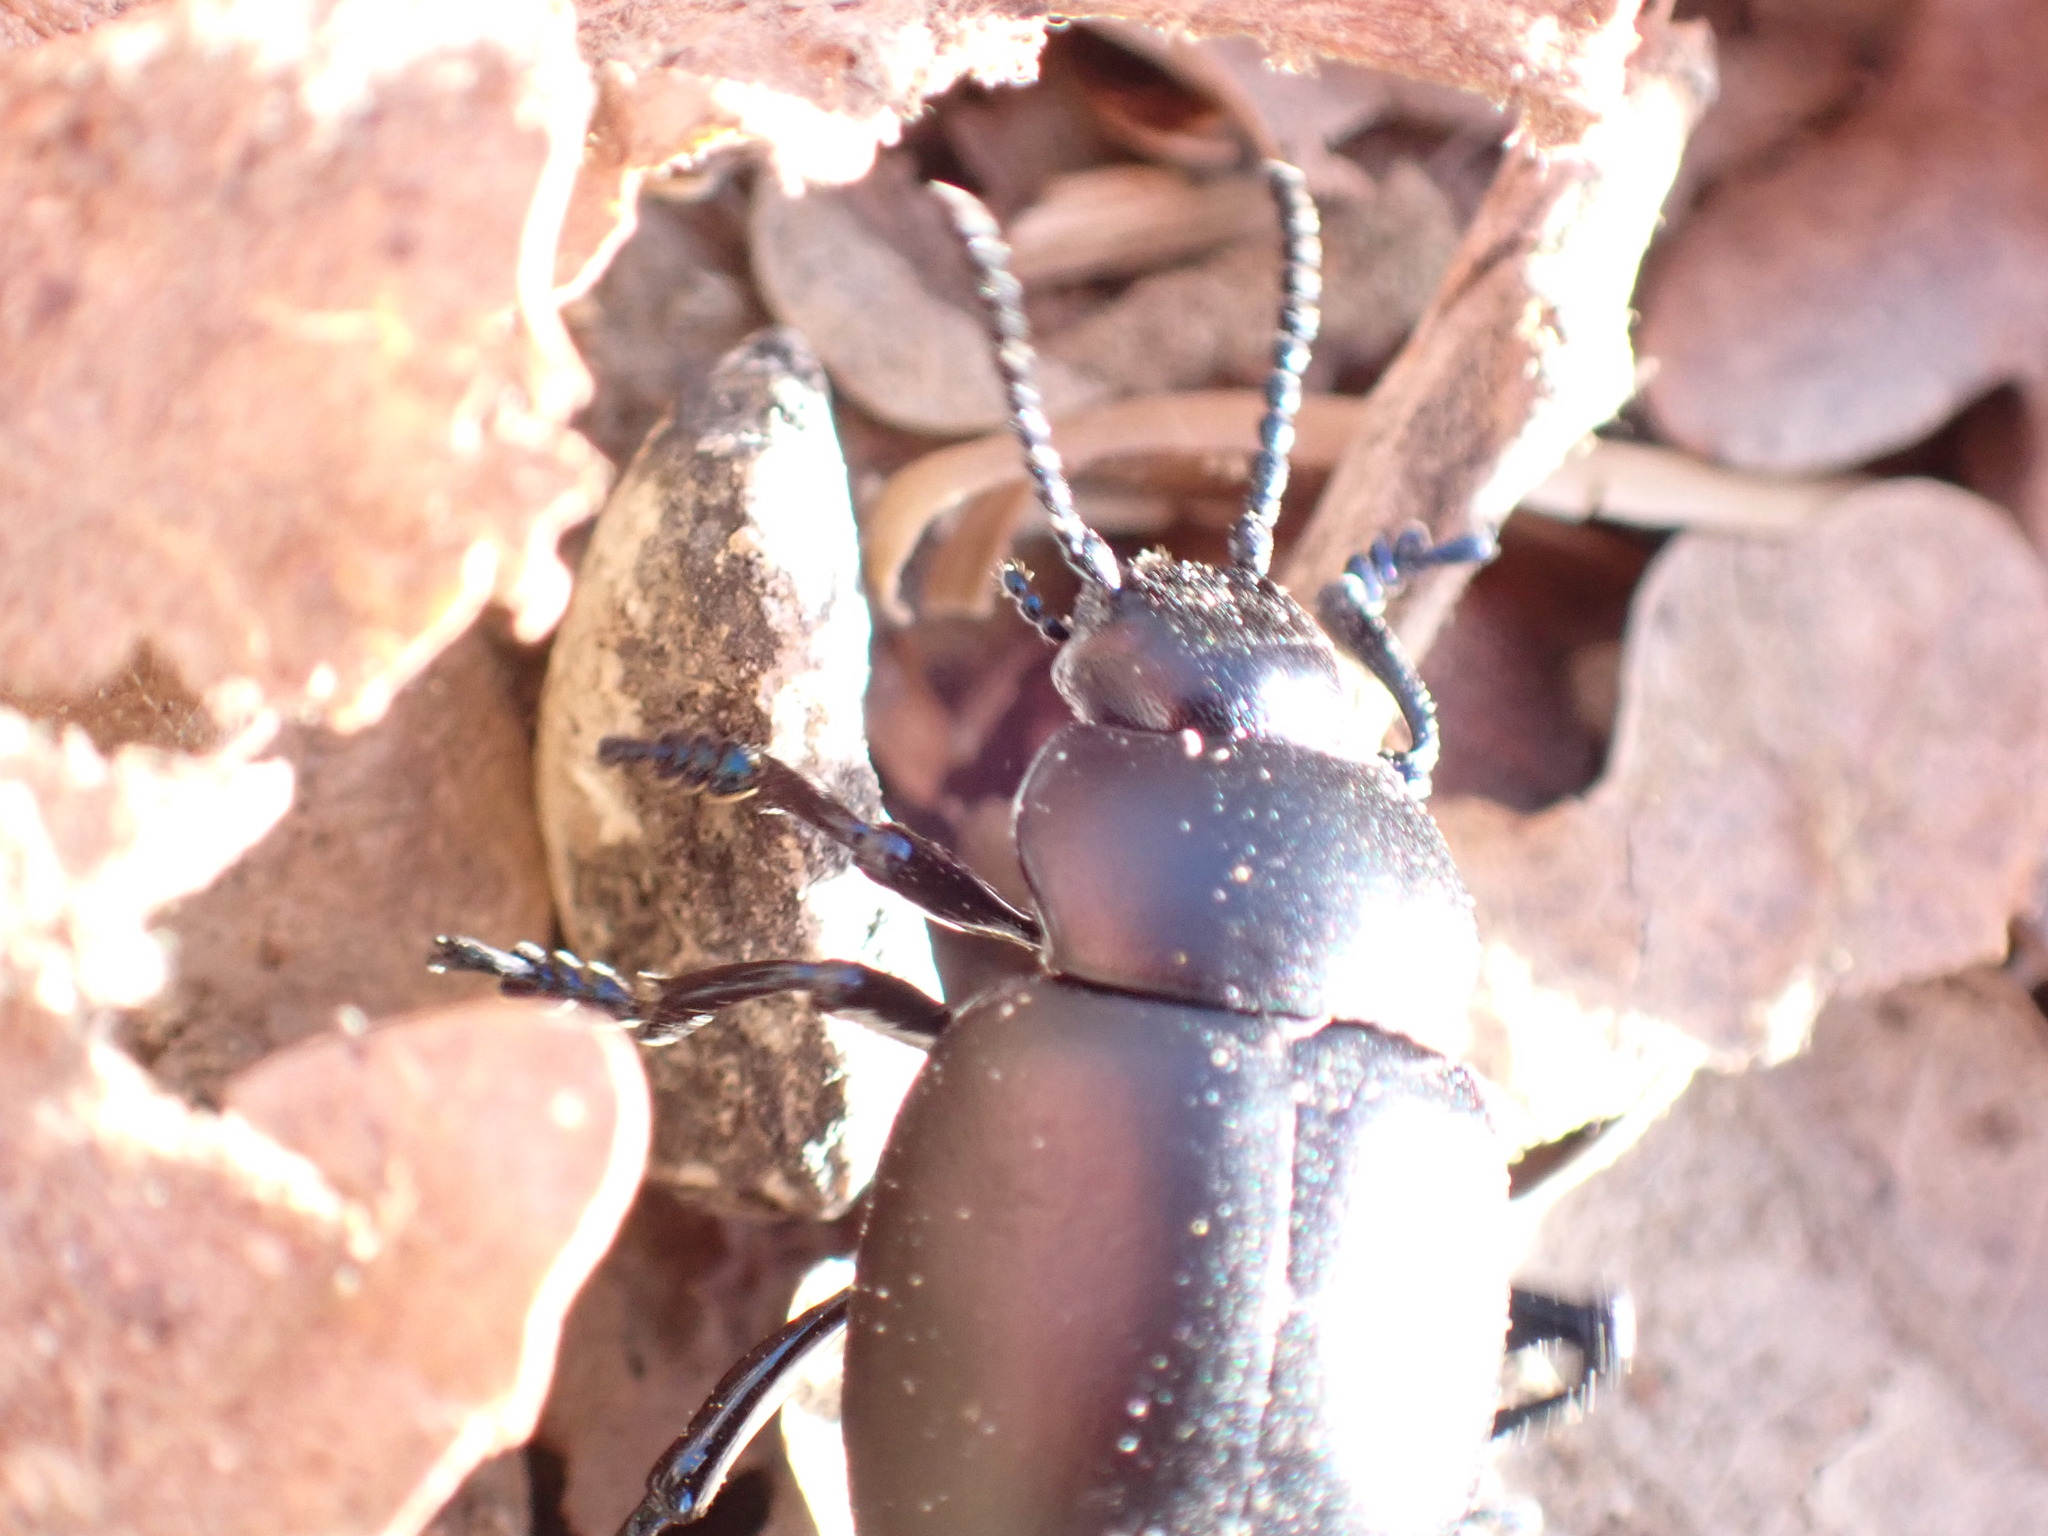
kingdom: Animalia
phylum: Arthropoda
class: Insecta
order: Coleoptera
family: Chrysomelidae
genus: Timarcha
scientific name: Timarcha tenebricosa
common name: Bloody-nosed beetle
